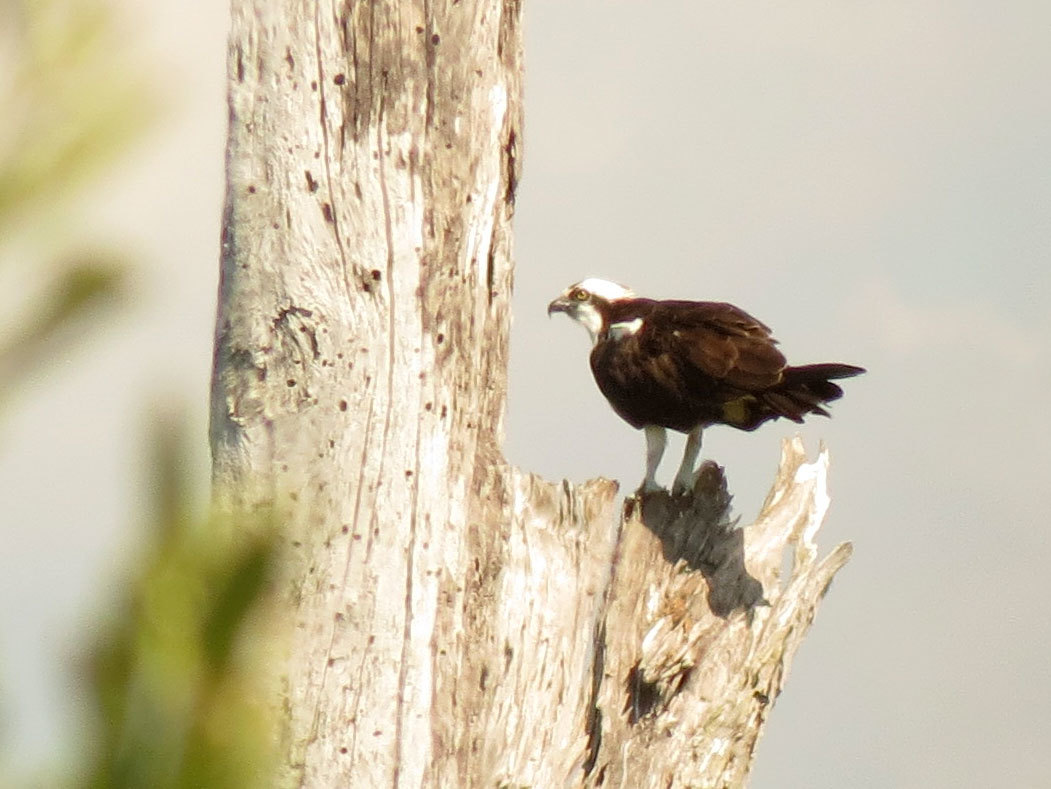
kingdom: Animalia
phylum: Chordata
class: Aves
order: Accipitriformes
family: Pandionidae
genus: Pandion
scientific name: Pandion haliaetus
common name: Osprey
